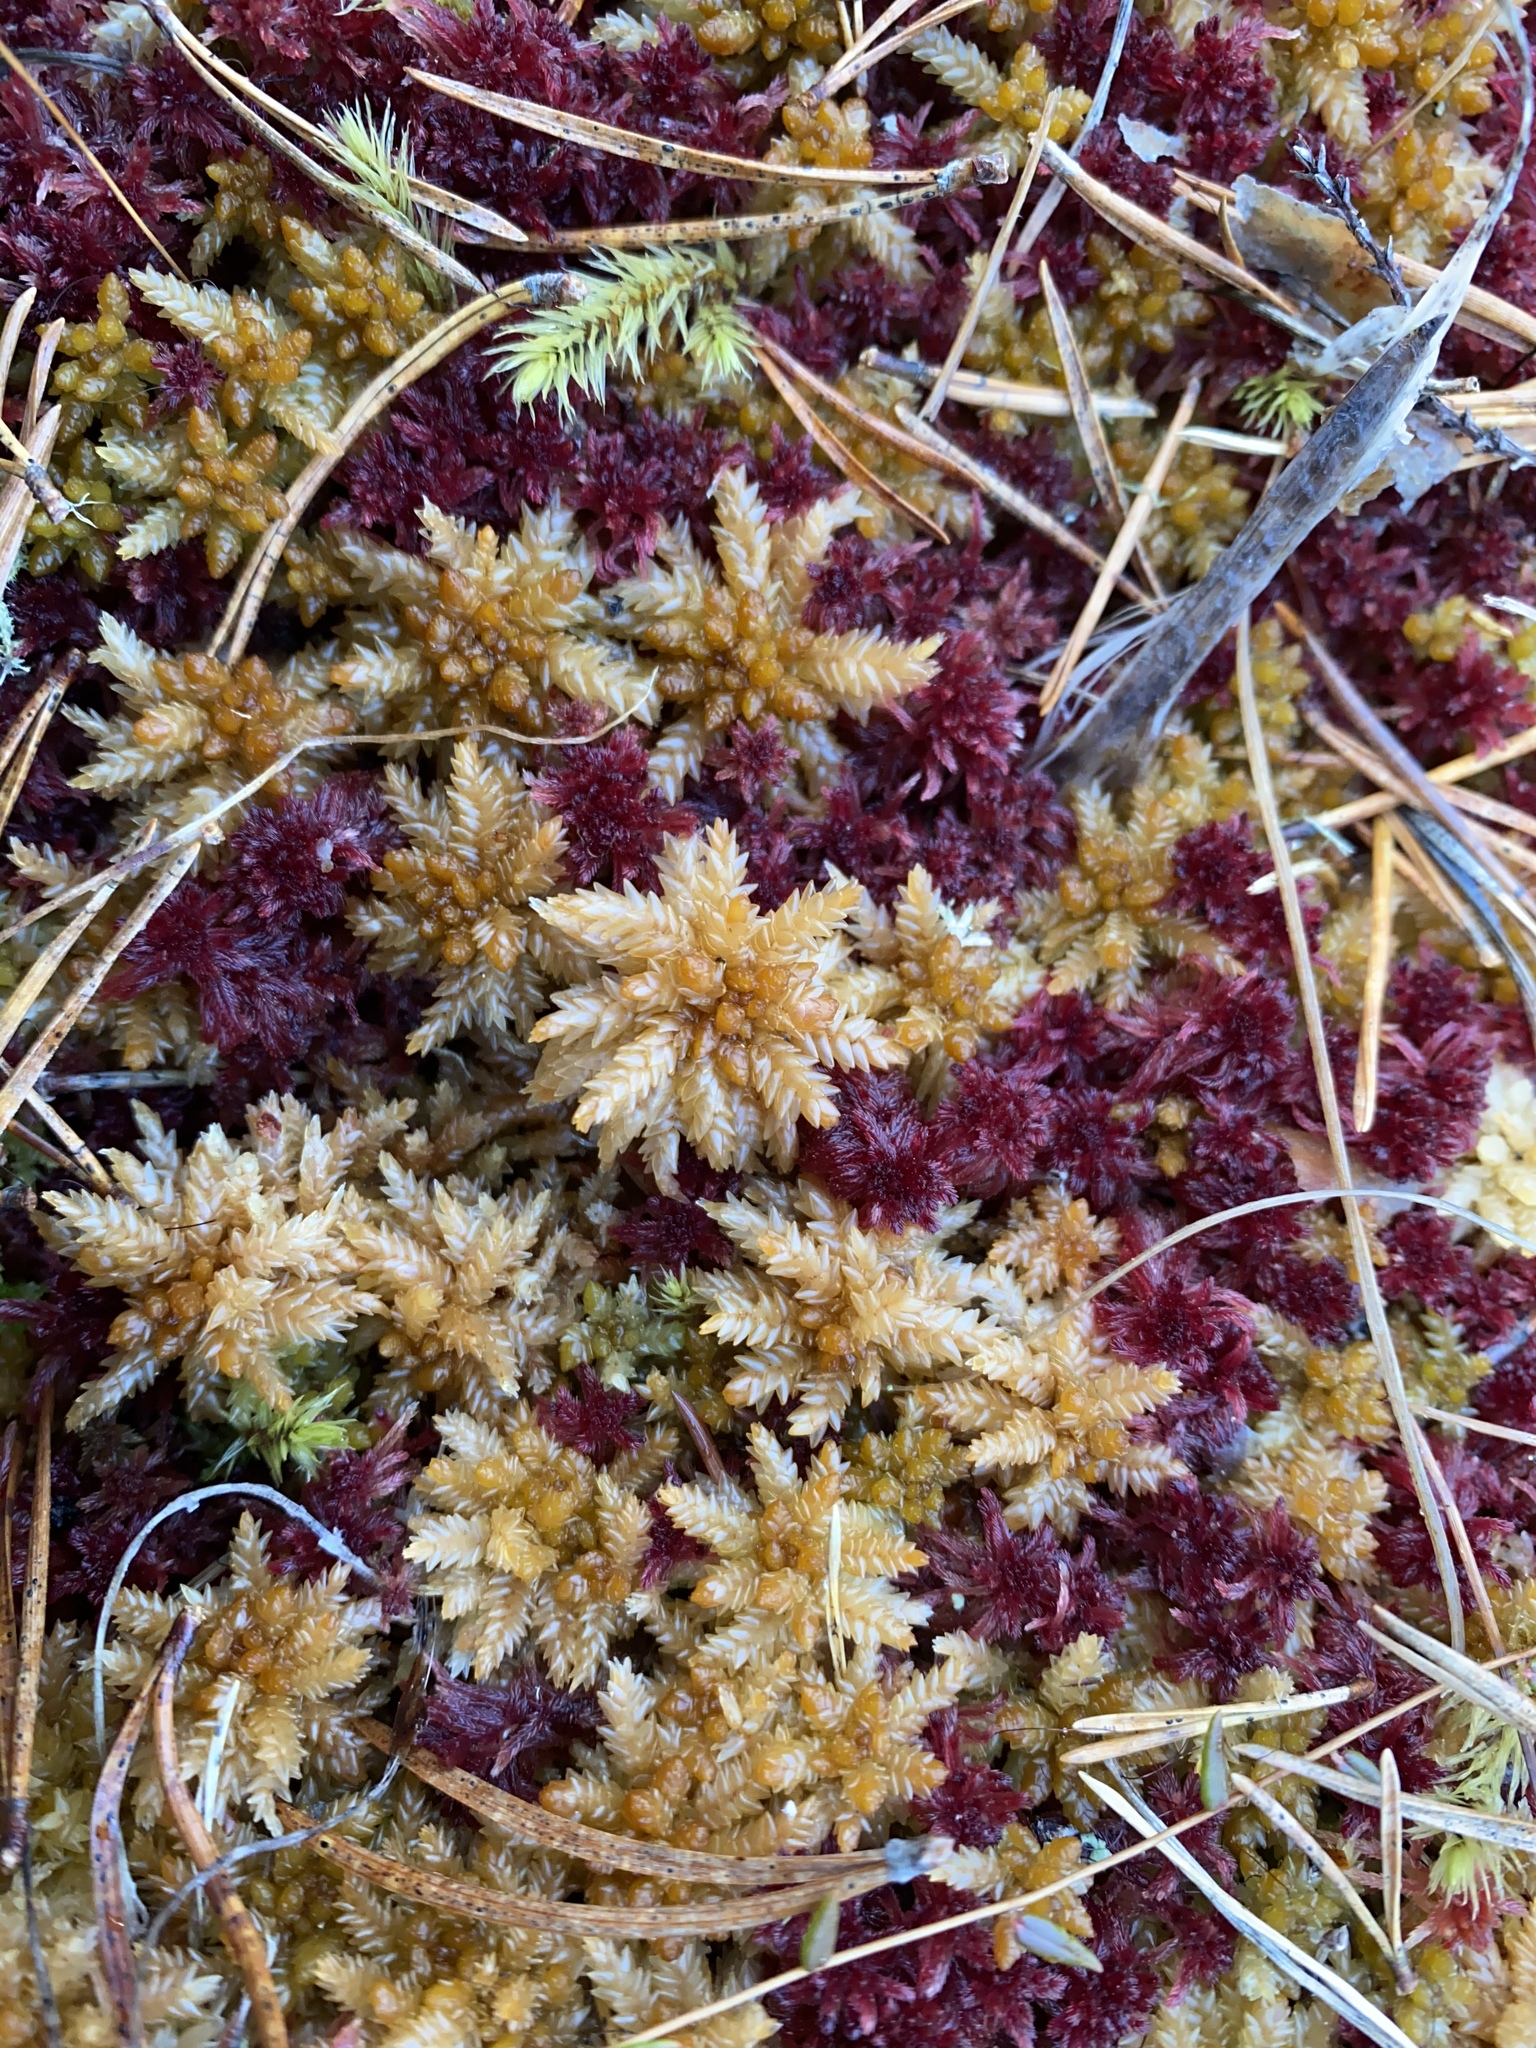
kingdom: Plantae
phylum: Bryophyta
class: Sphagnopsida
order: Sphagnales
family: Sphagnaceae
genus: Sphagnum
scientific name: Sphagnum papillosum
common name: Papillose peat moss
